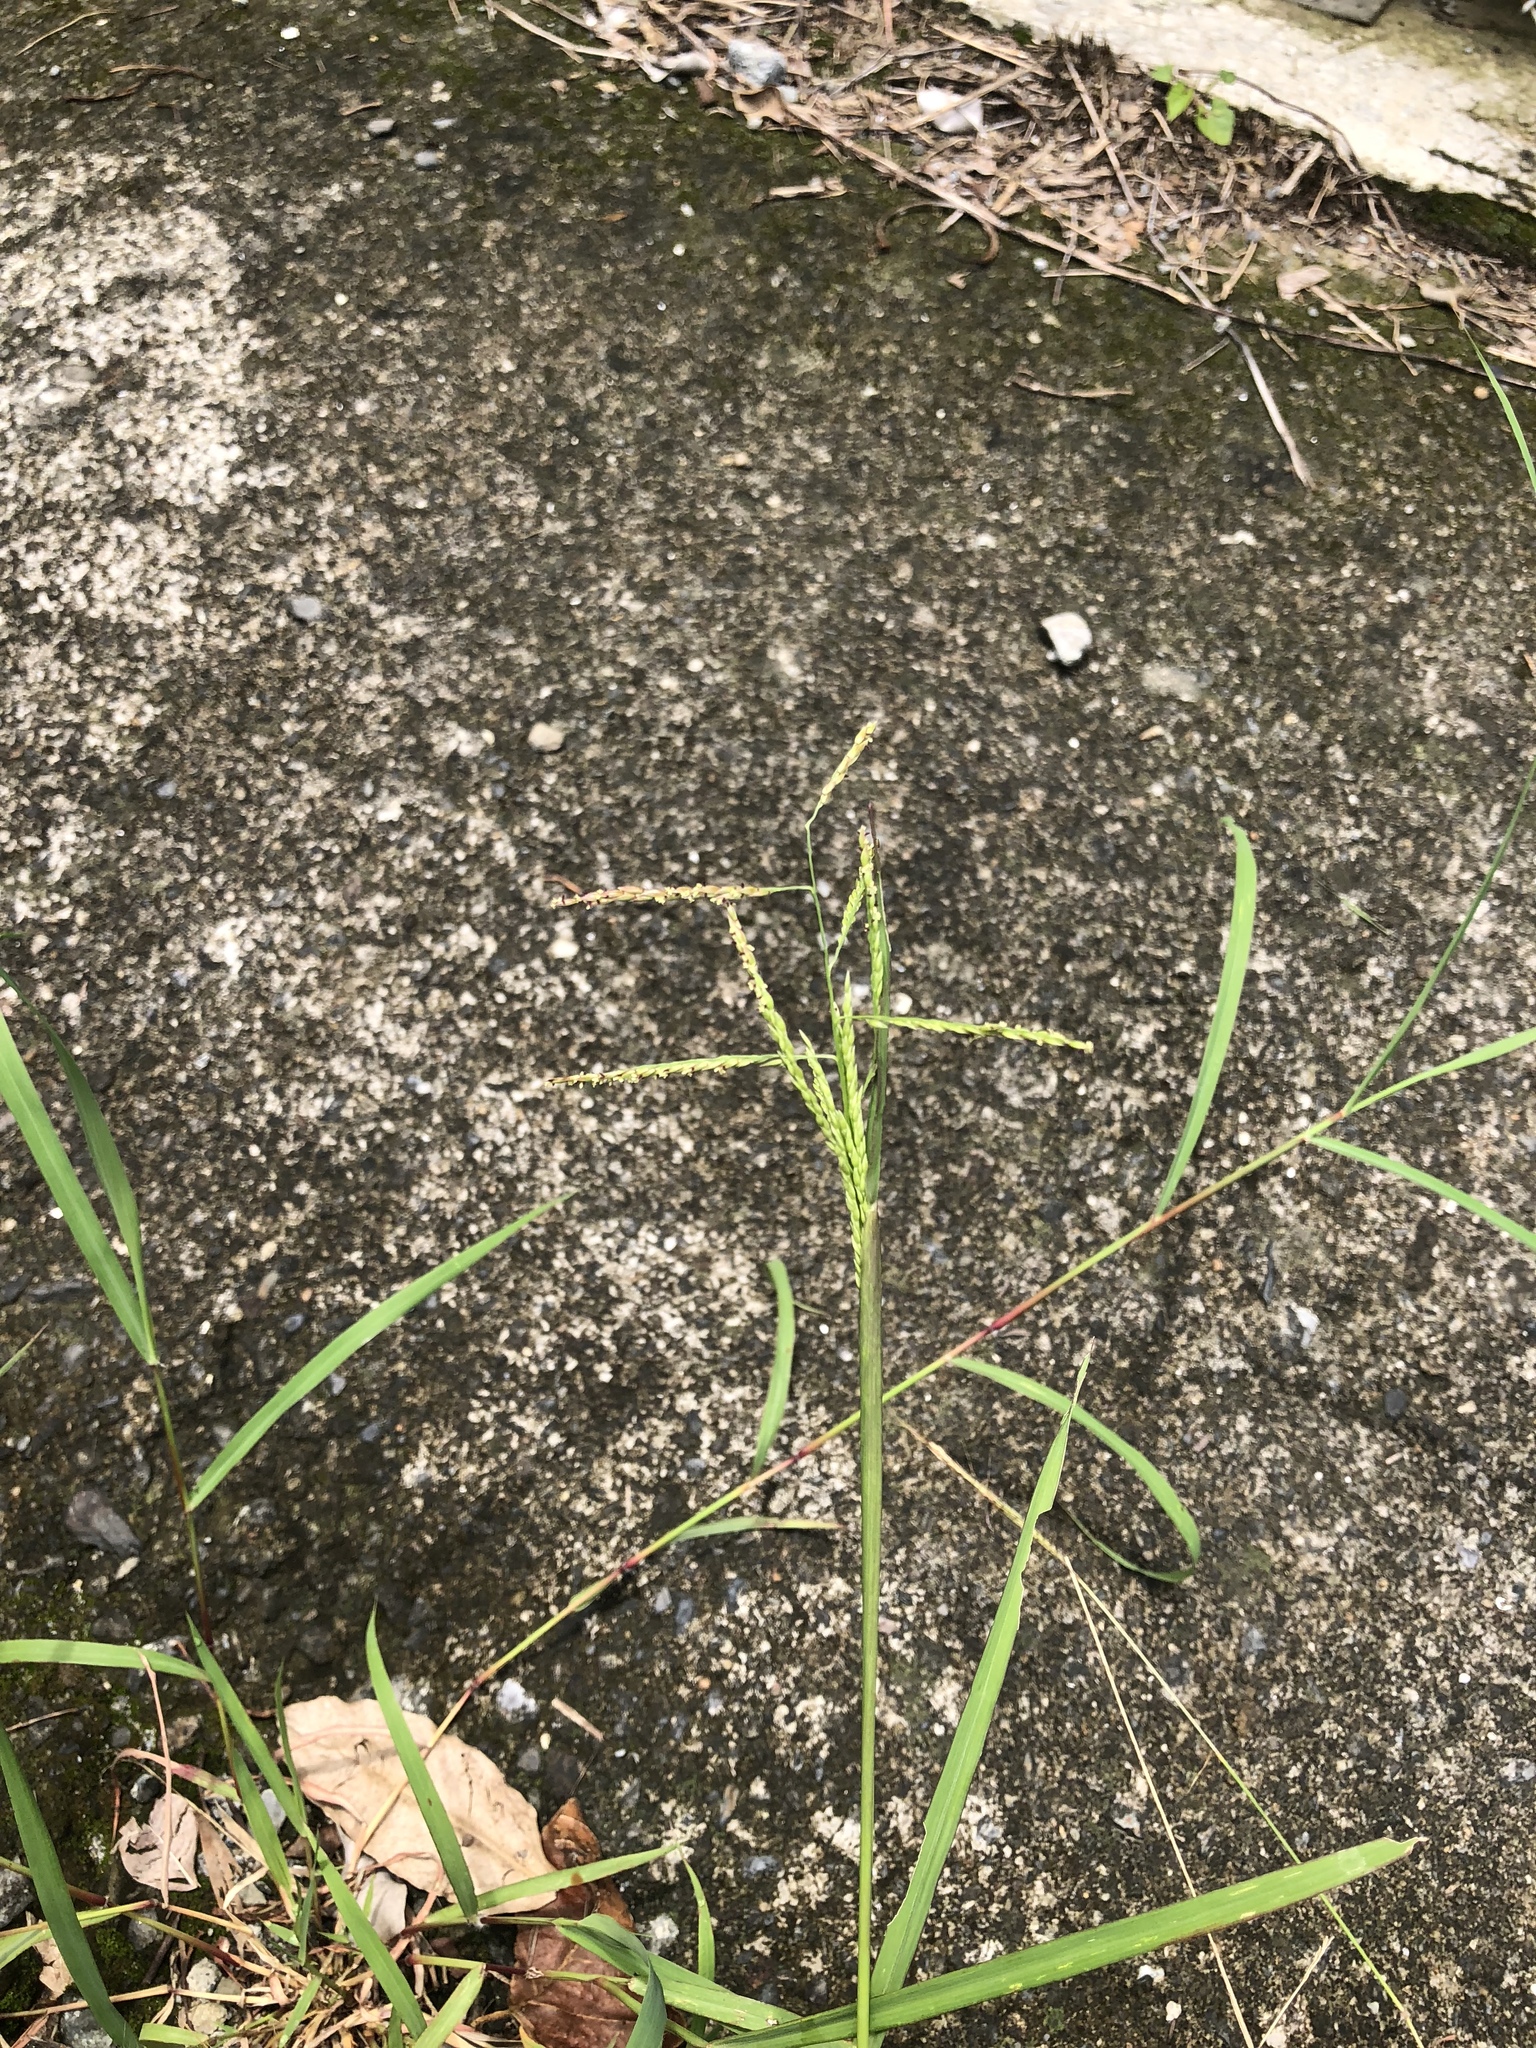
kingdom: Plantae
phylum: Tracheophyta
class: Liliopsida
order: Poales
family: Poaceae
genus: Eriochloa
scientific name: Eriochloa procera
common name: Spring grass
